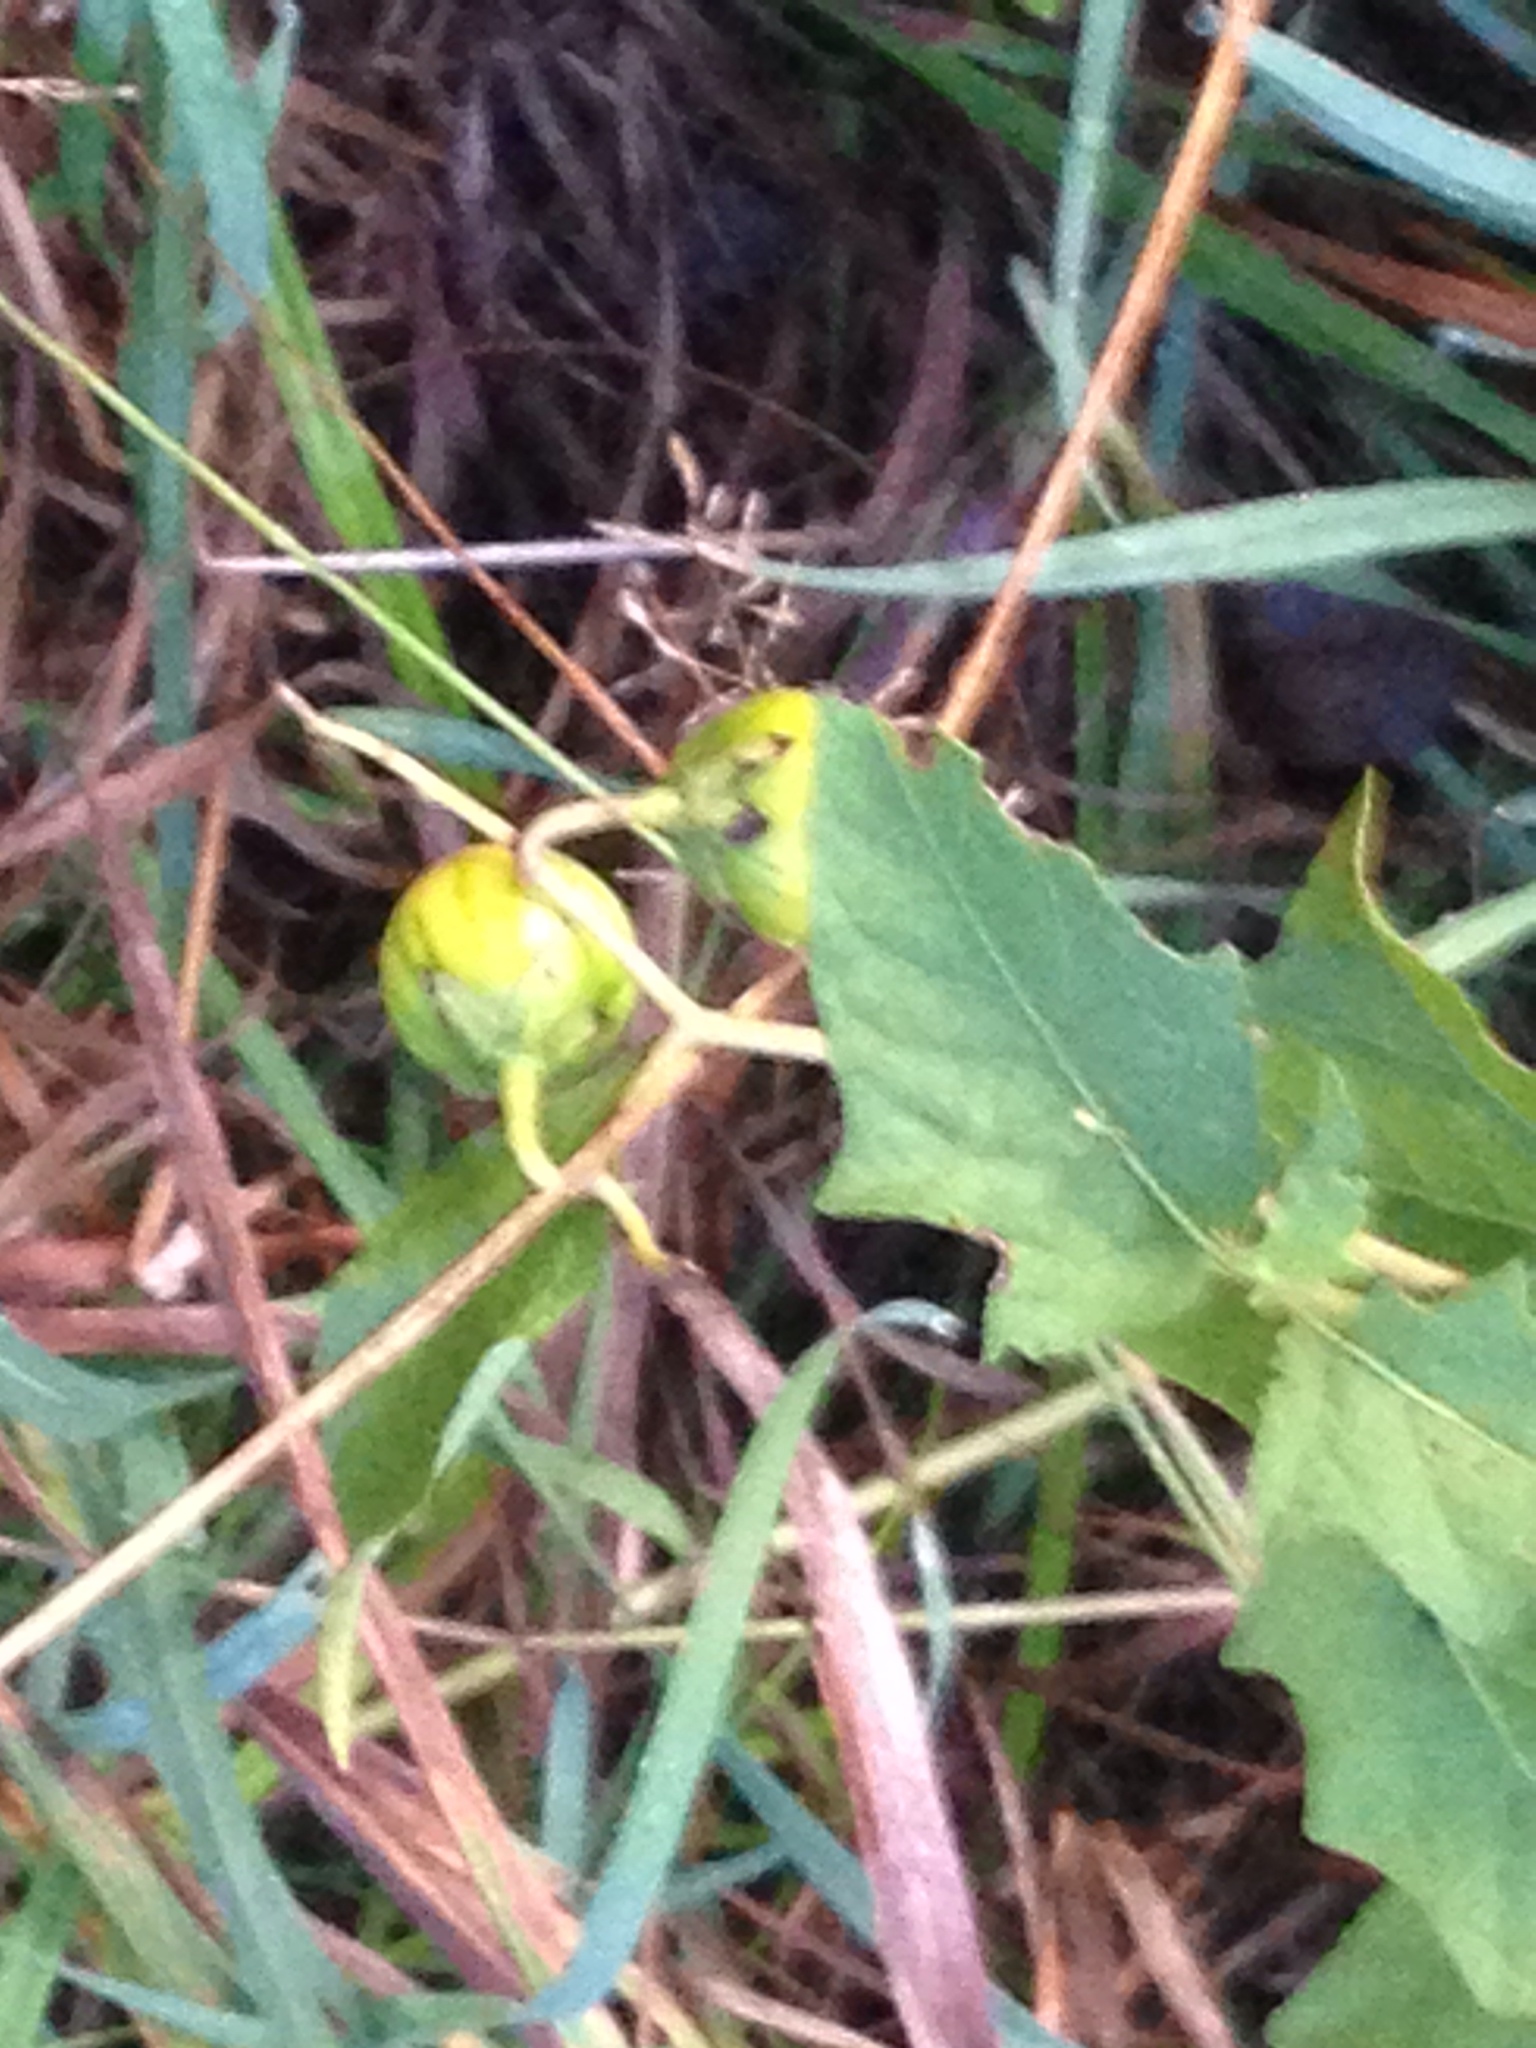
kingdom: Plantae
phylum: Tracheophyta
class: Magnoliopsida
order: Solanales
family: Solanaceae
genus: Solanum
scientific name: Solanum carolinense
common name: Horse-nettle
